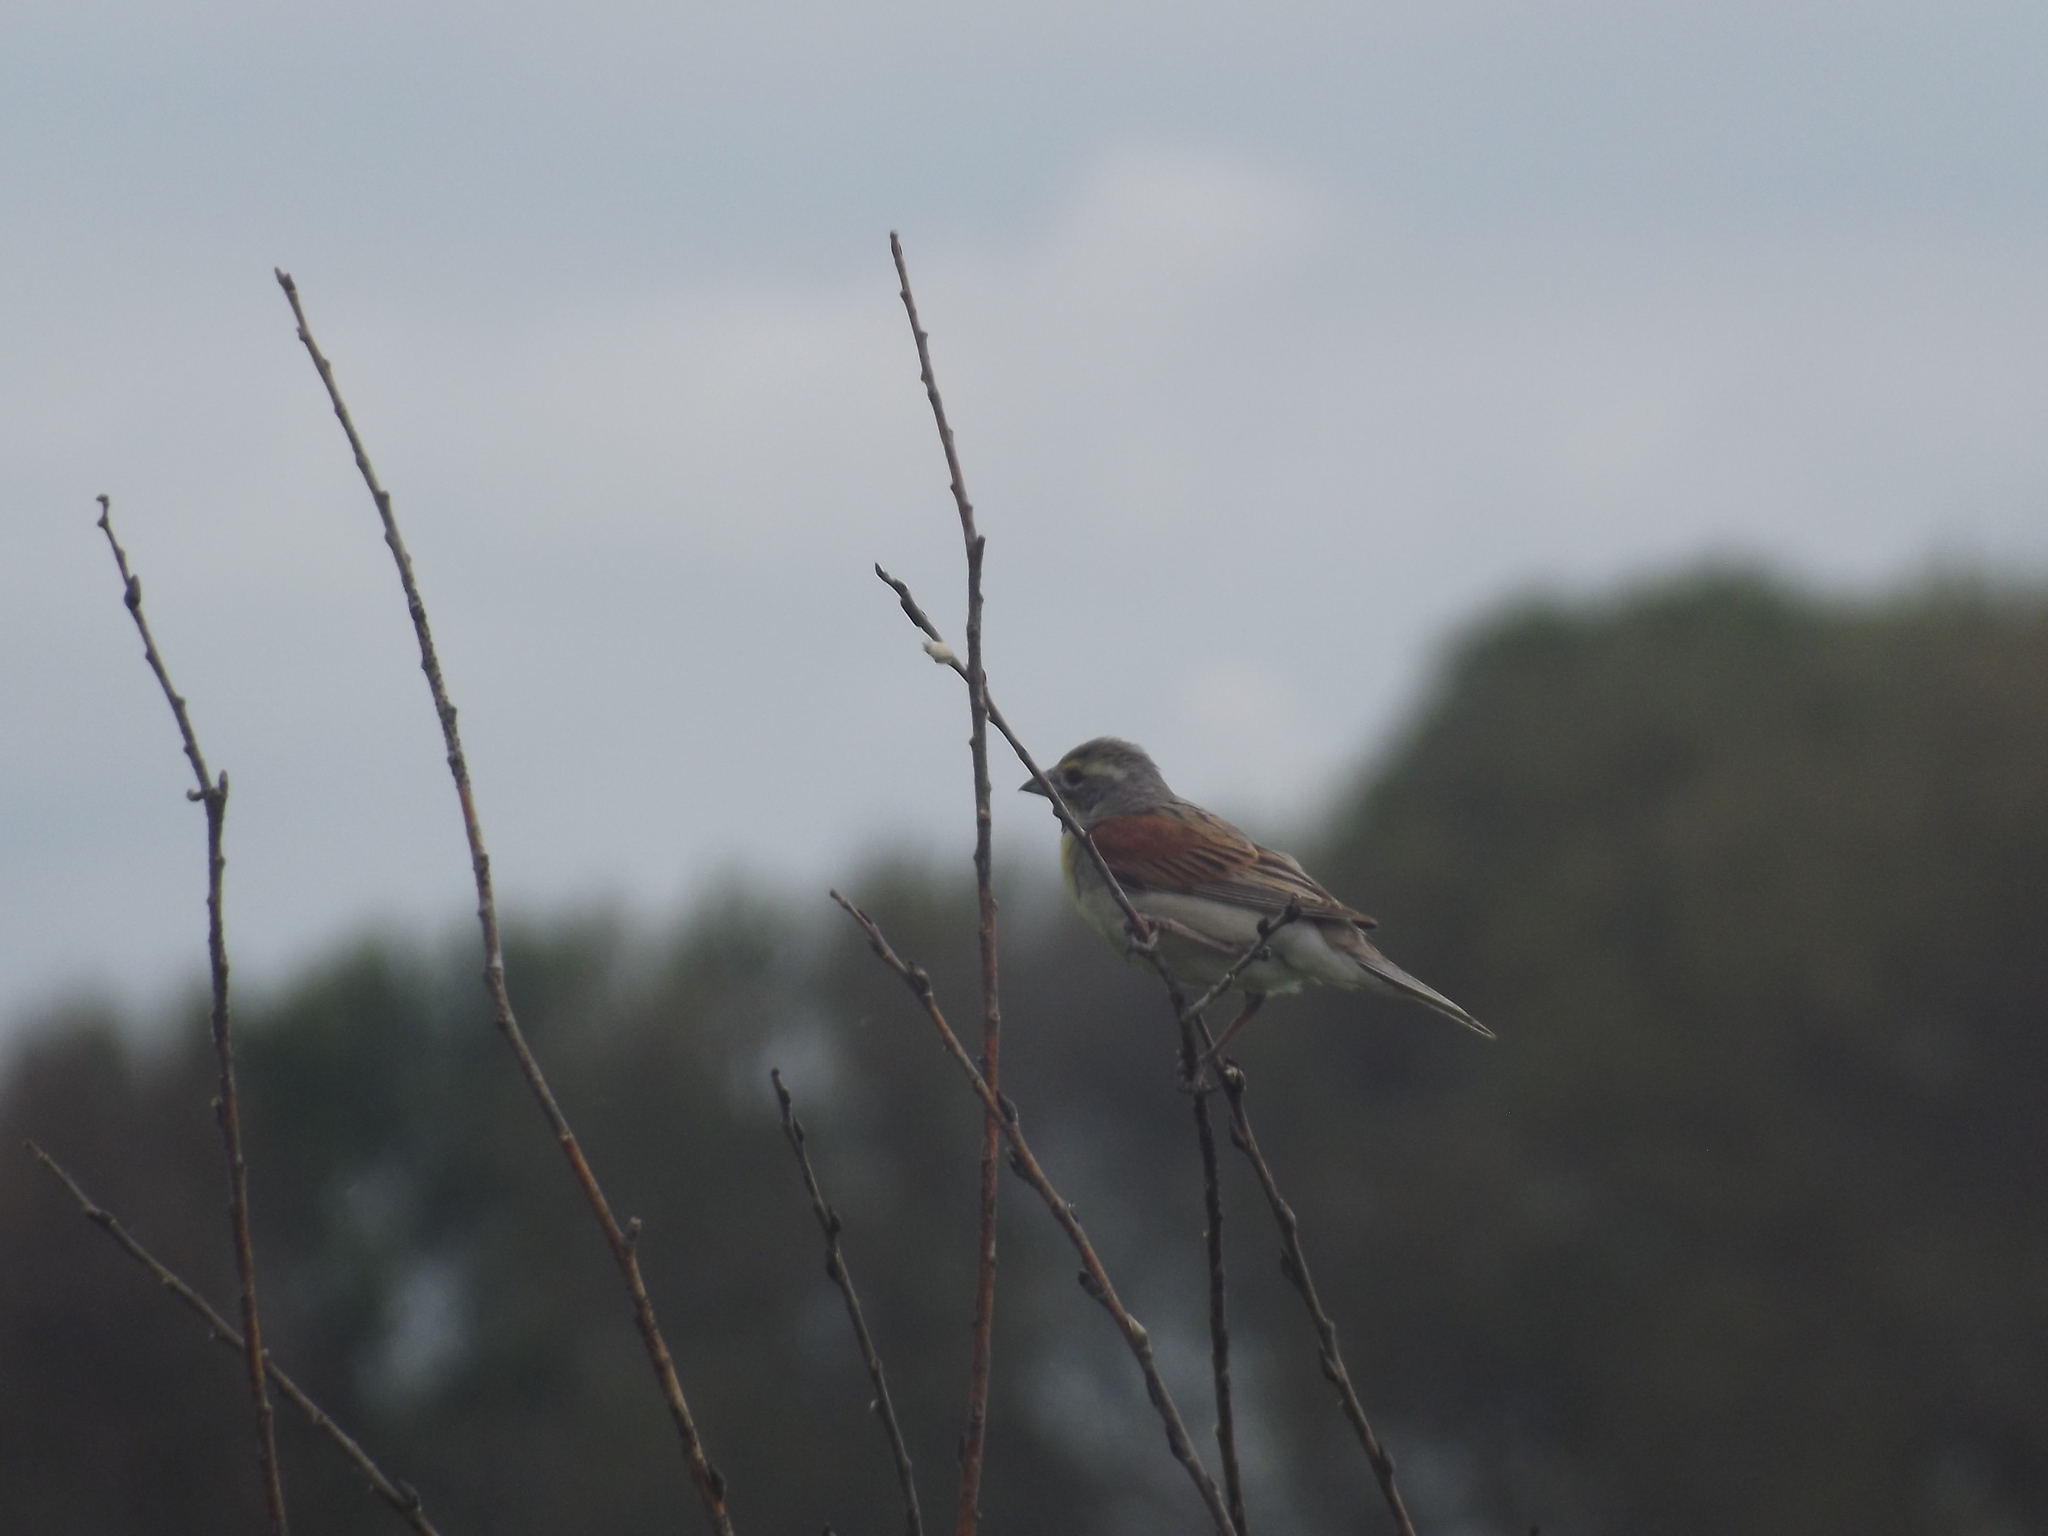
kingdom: Animalia
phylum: Chordata
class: Aves
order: Passeriformes
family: Cardinalidae
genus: Spiza
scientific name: Spiza americana
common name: Dickcissel
